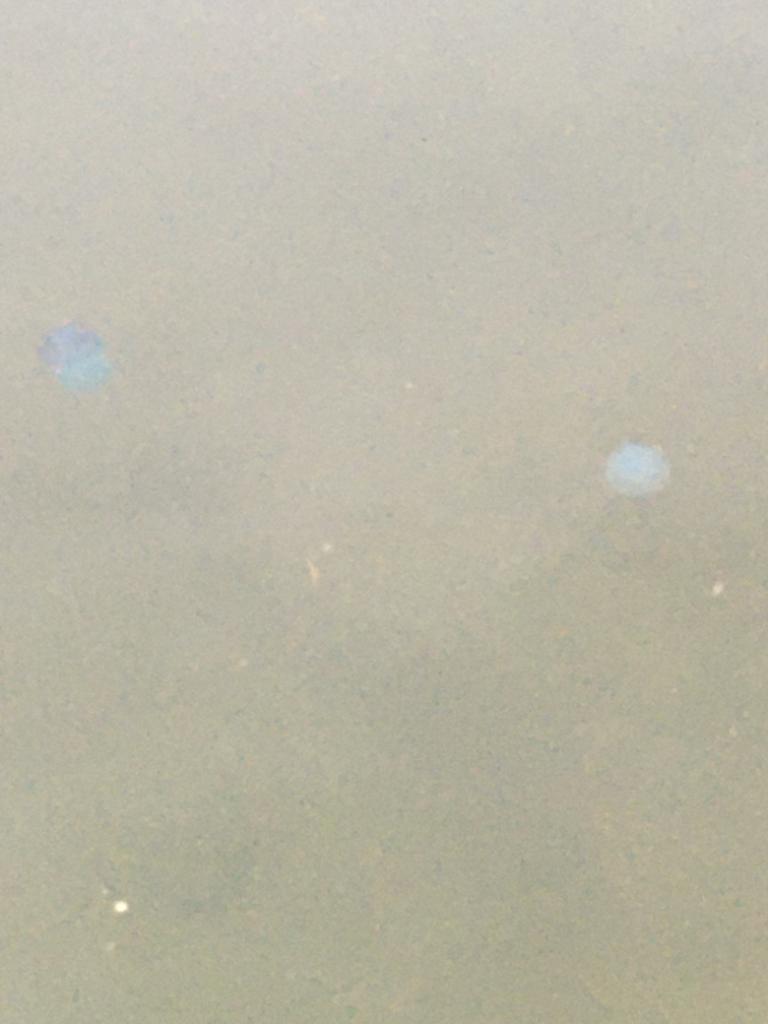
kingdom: Animalia
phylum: Cnidaria
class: Scyphozoa
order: Rhizostomeae
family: Catostylidae
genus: Acromitus
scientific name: Acromitus flagellatus
